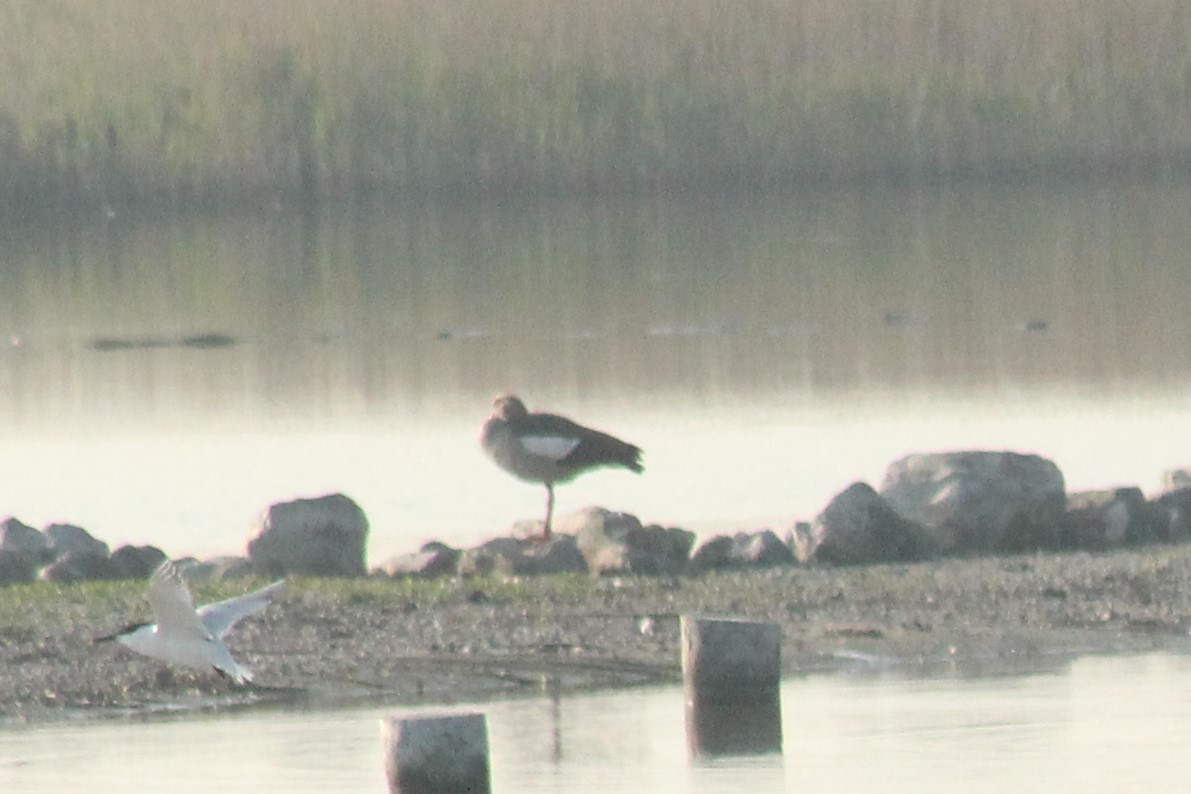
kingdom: Animalia
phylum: Chordata
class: Aves
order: Anseriformes
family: Anatidae
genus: Alopochen
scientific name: Alopochen aegyptiaca
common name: Egyptian goose
